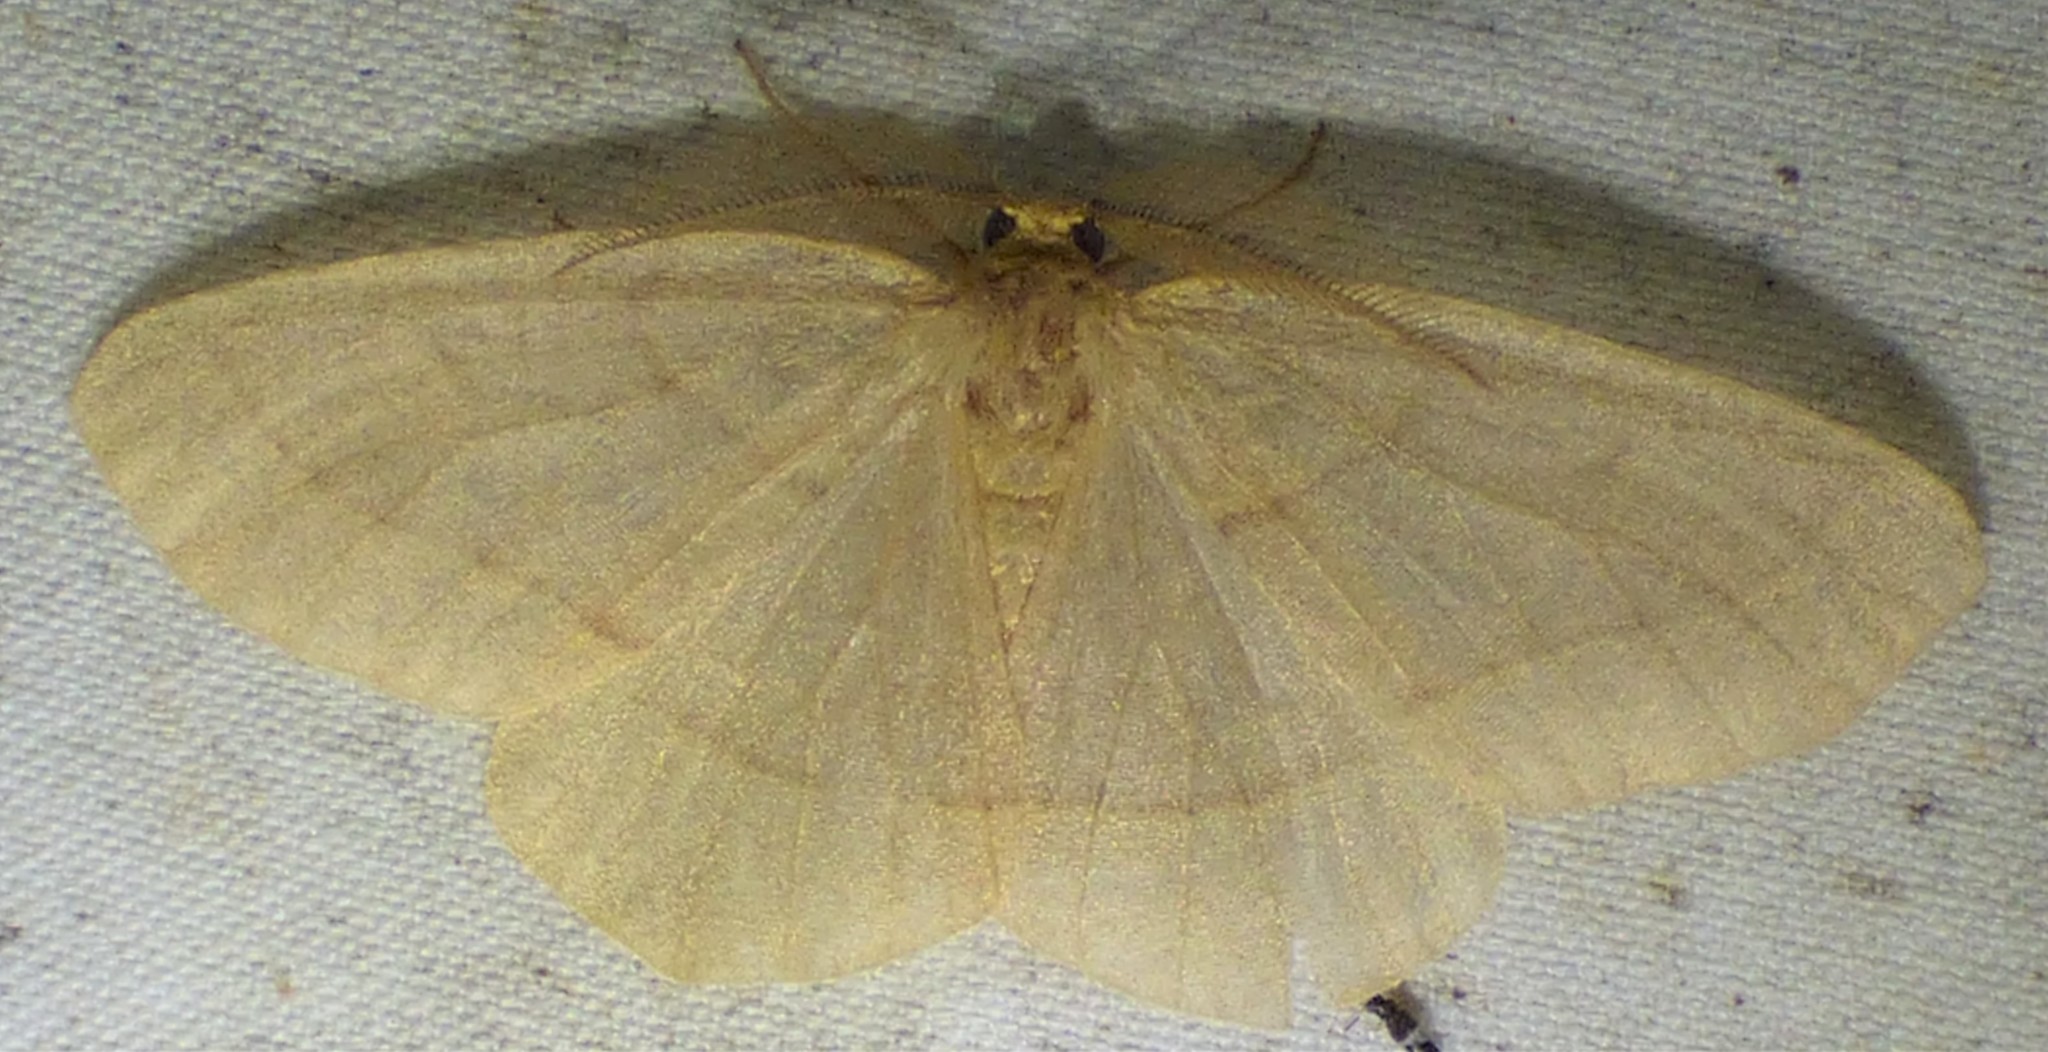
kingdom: Animalia
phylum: Arthropoda
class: Insecta
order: Lepidoptera
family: Geometridae
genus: Besma
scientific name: Besma endropiaria
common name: Straw besma
